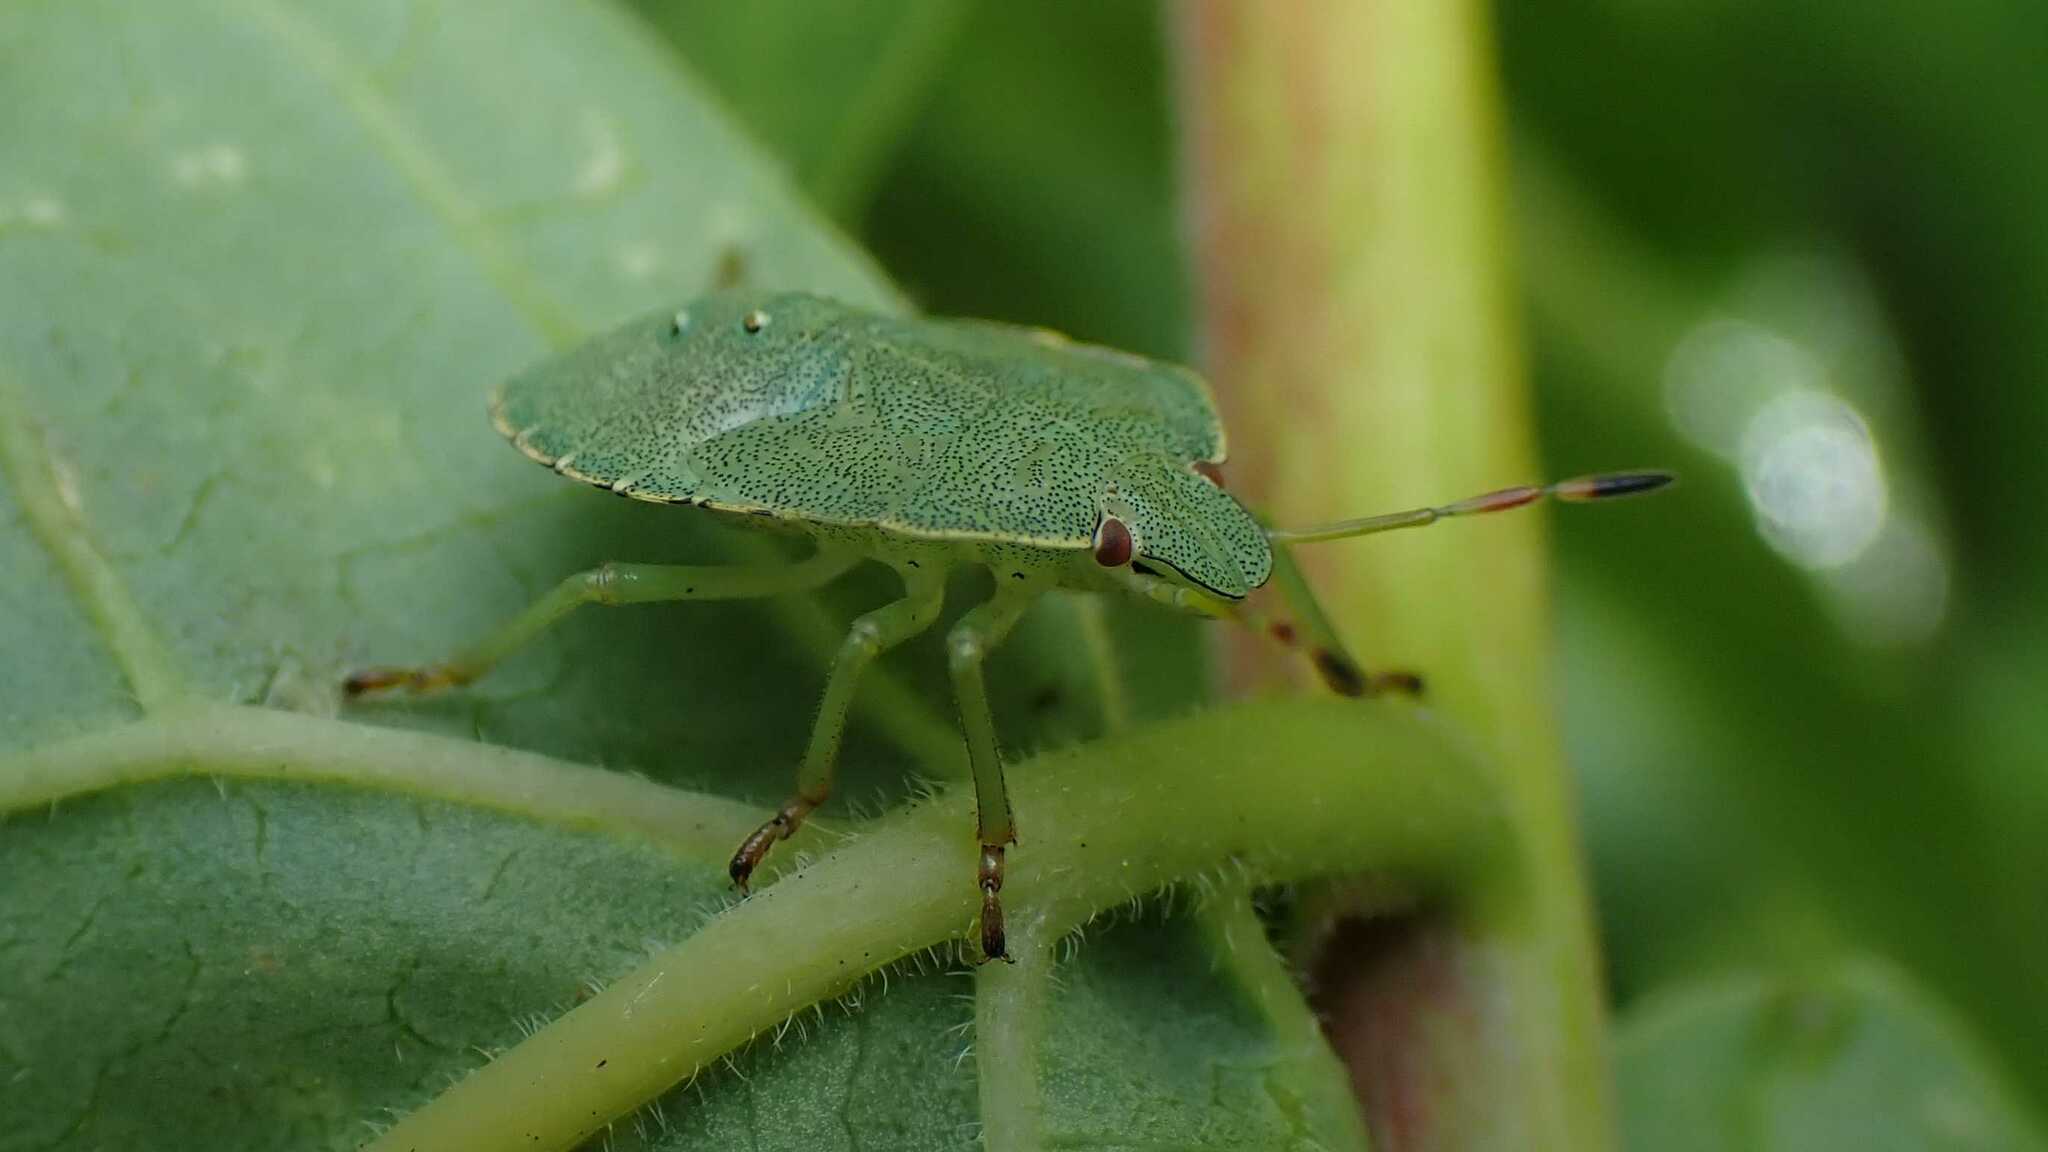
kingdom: Animalia
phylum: Arthropoda
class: Insecta
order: Hemiptera
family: Pentatomidae
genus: Palomena
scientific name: Palomena prasina
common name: Green shieldbug
